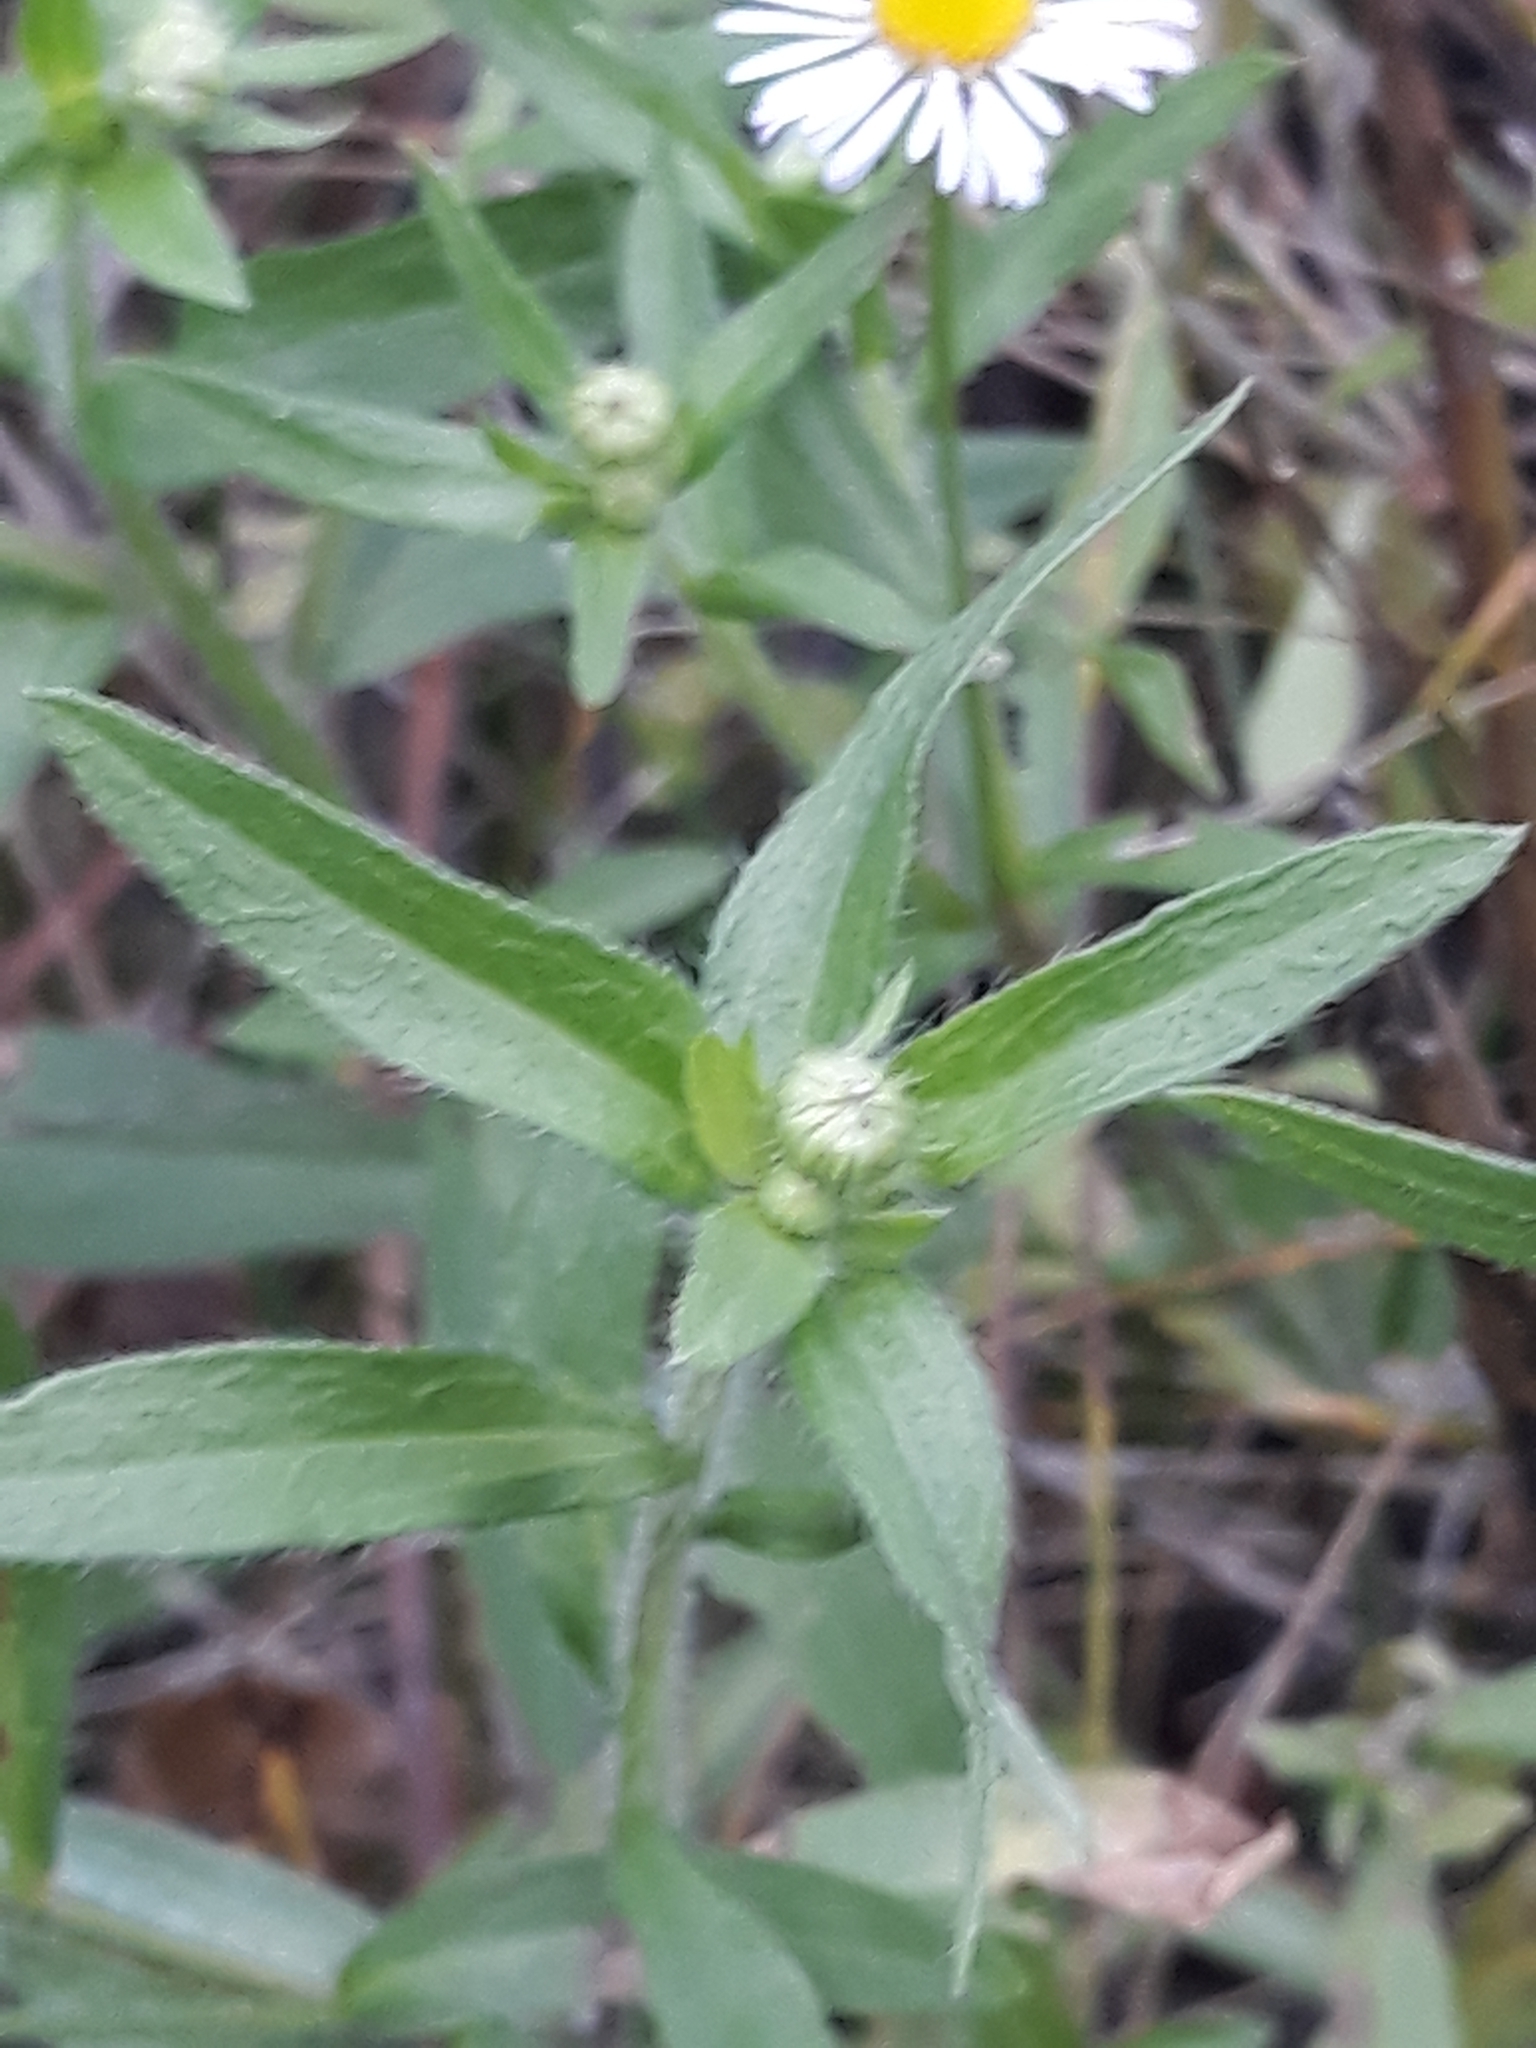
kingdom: Plantae
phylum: Tracheophyta
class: Magnoliopsida
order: Asterales
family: Asteraceae
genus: Erigeron
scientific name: Erigeron annuus
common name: Tall fleabane
